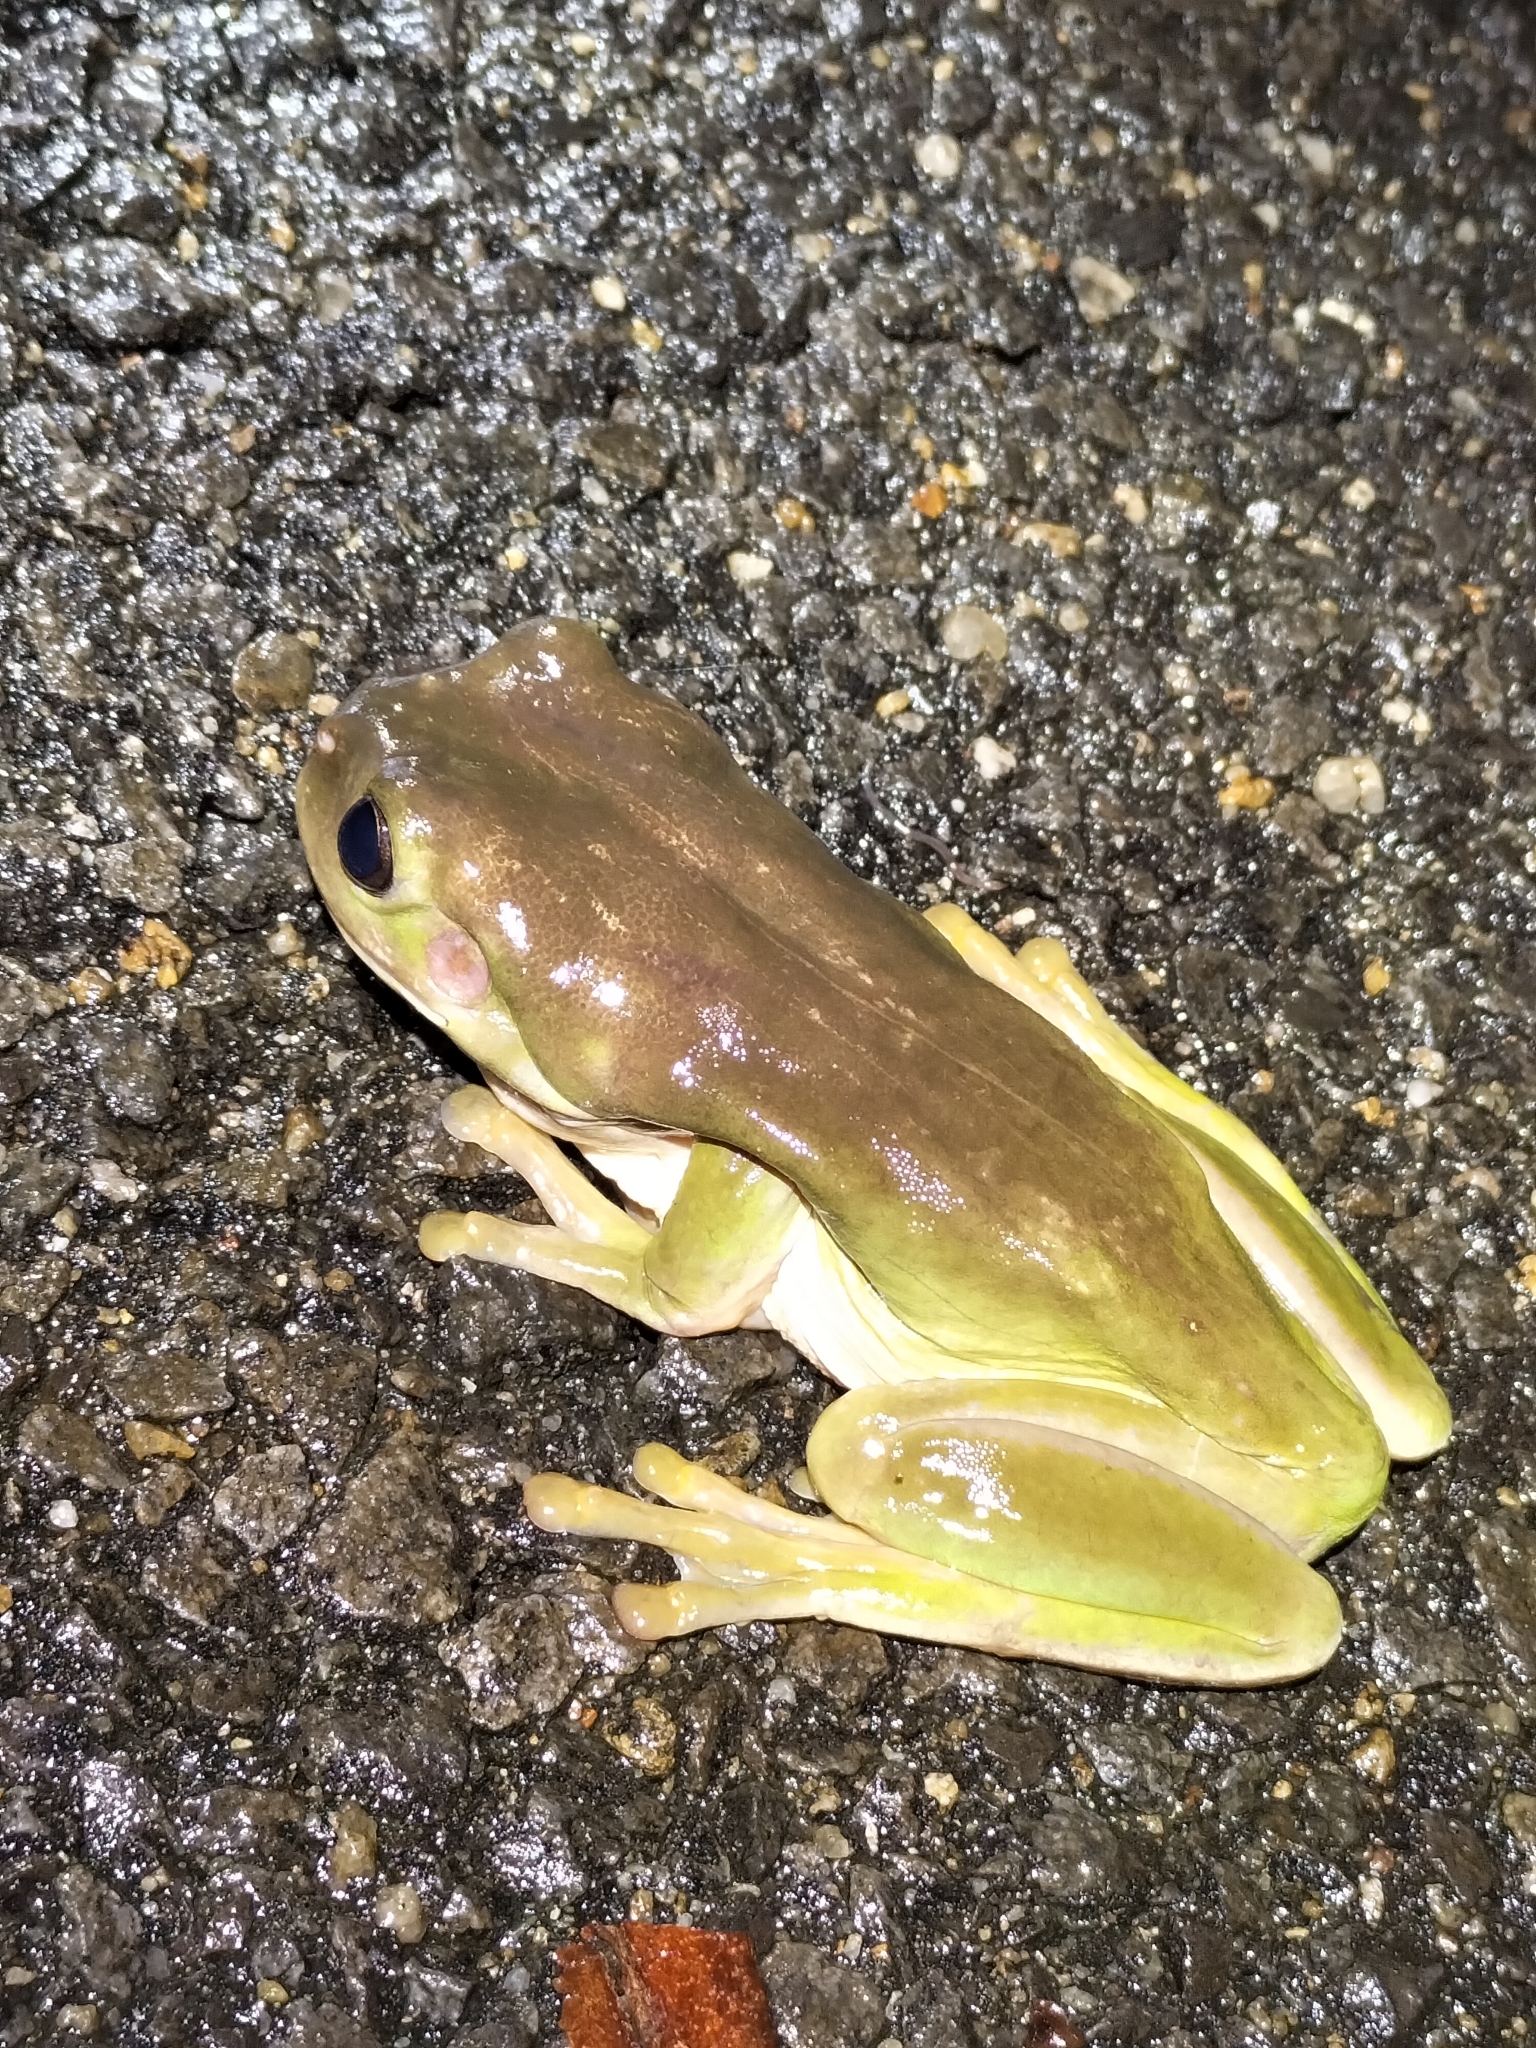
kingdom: Animalia
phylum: Chordata
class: Amphibia
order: Anura
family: Pelodryadidae
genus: Ranoidea
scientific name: Ranoidea caerulea
